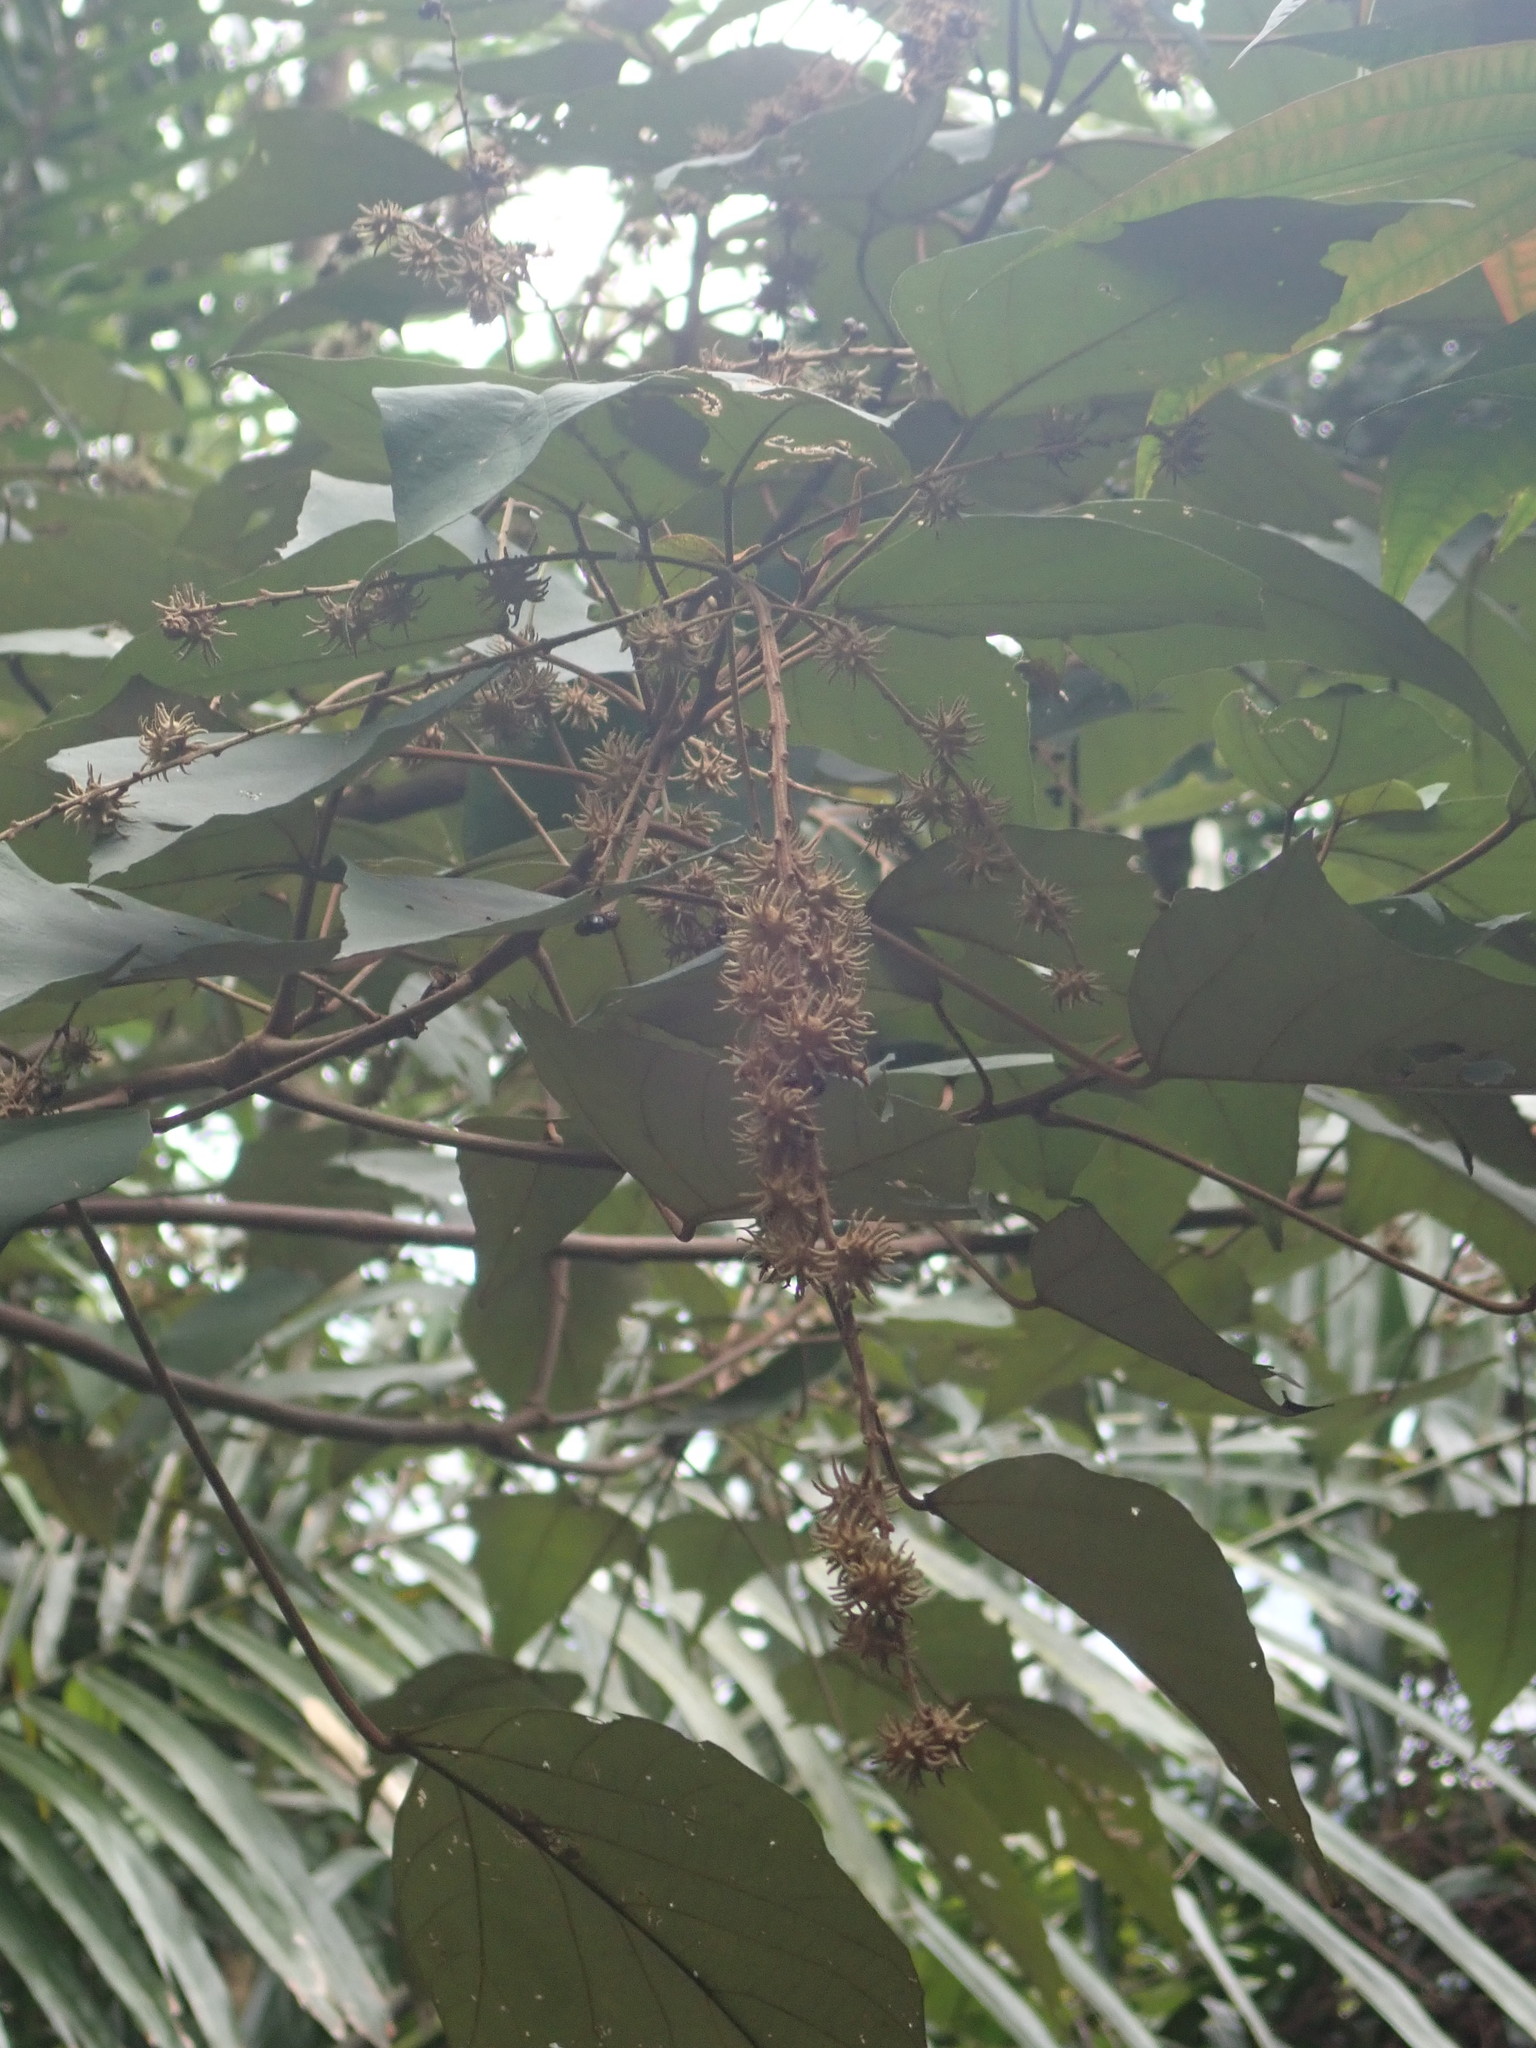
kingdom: Plantae
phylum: Tracheophyta
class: Magnoliopsida
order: Malpighiales
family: Euphorbiaceae
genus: Mallotus
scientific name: Mallotus paniculatus
